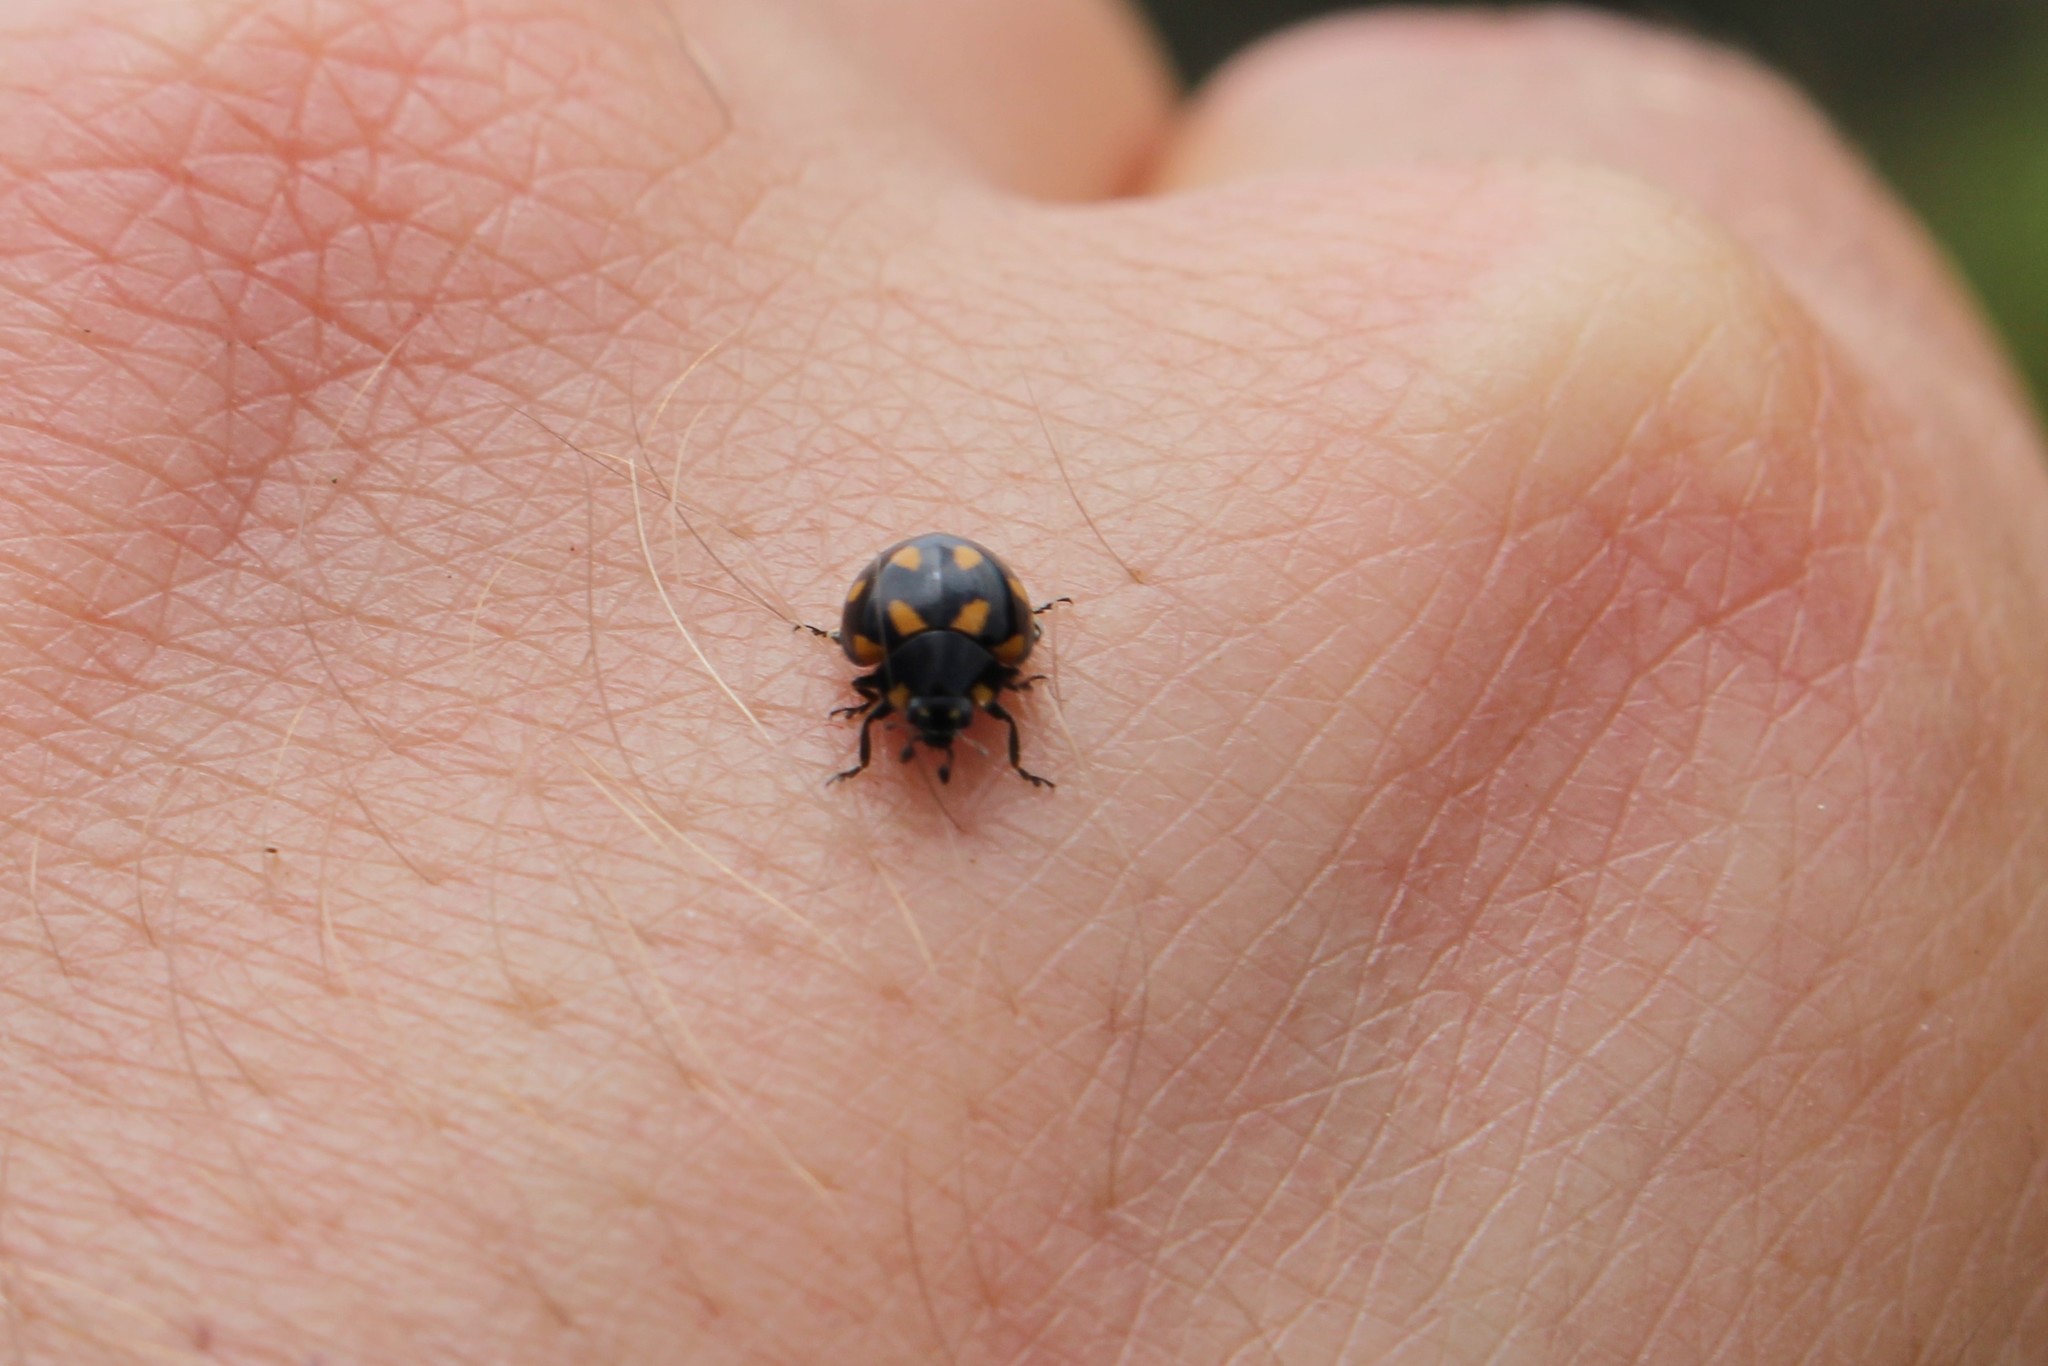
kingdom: Animalia
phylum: Arthropoda
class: Insecta
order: Coleoptera
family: Coccinellidae
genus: Coccinella
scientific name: Coccinella leonina
